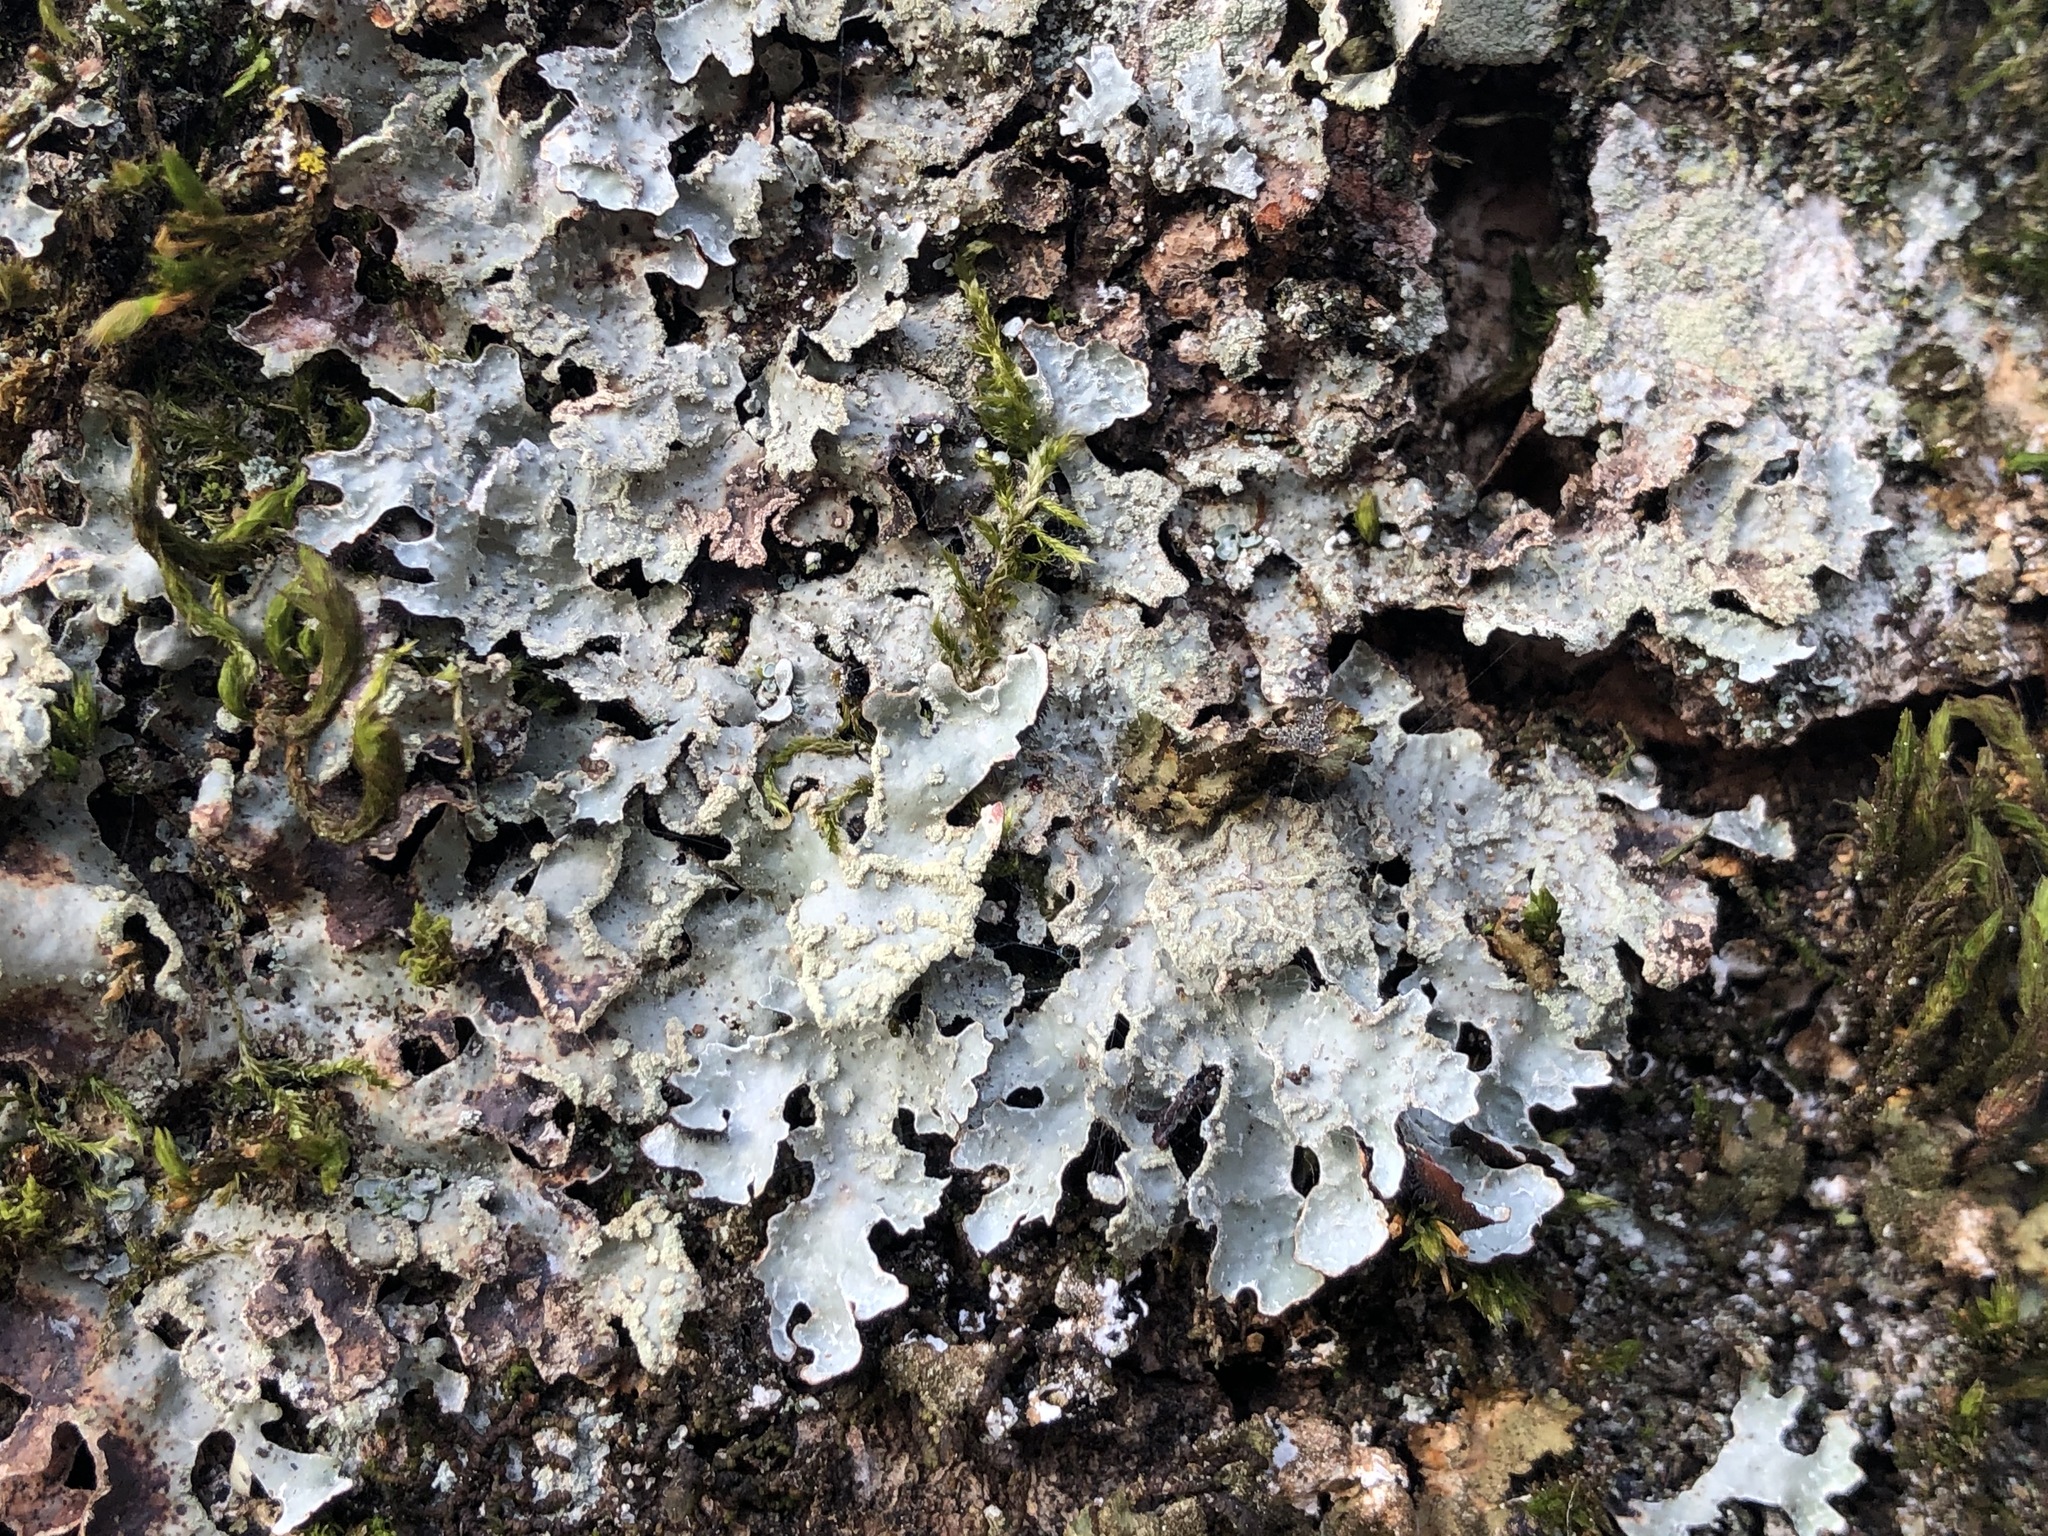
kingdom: Fungi
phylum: Ascomycota
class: Lecanoromycetes
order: Lecanorales
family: Parmeliaceae
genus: Parmelia
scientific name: Parmelia sulcata
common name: Netted shield lichen
